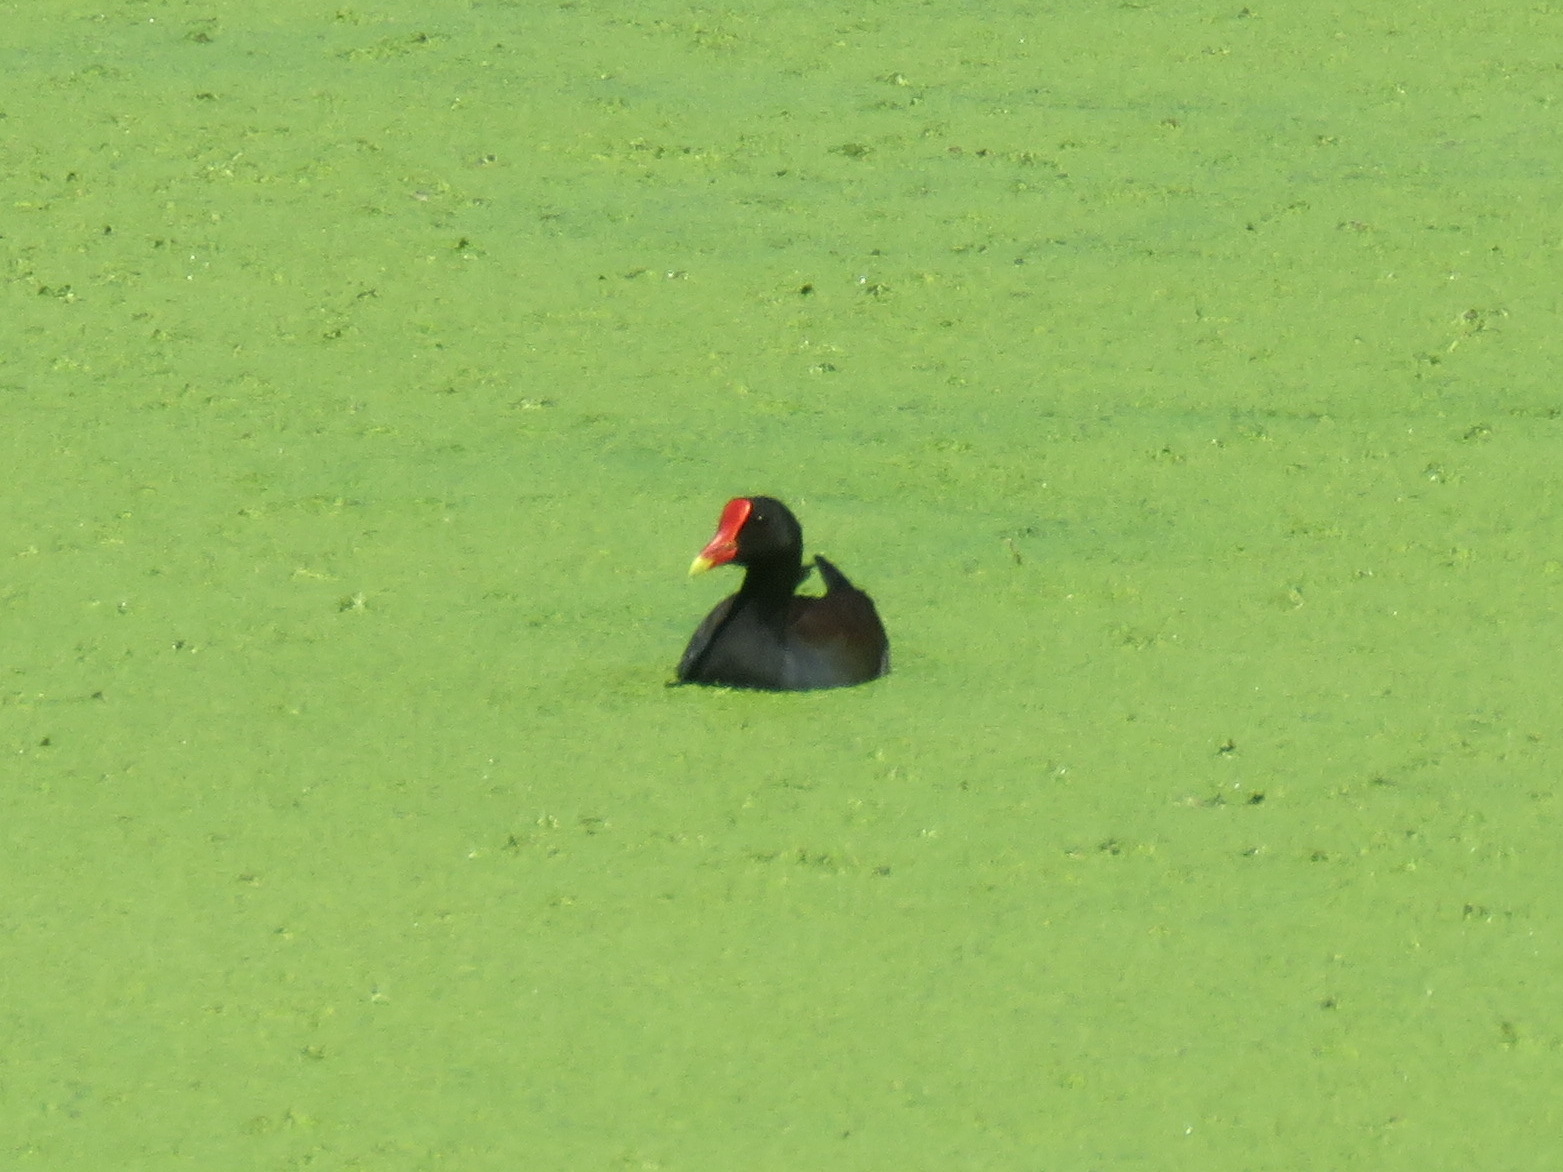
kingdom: Animalia
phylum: Chordata
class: Aves
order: Gruiformes
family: Rallidae
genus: Gallinula
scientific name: Gallinula chloropus
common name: Common moorhen
